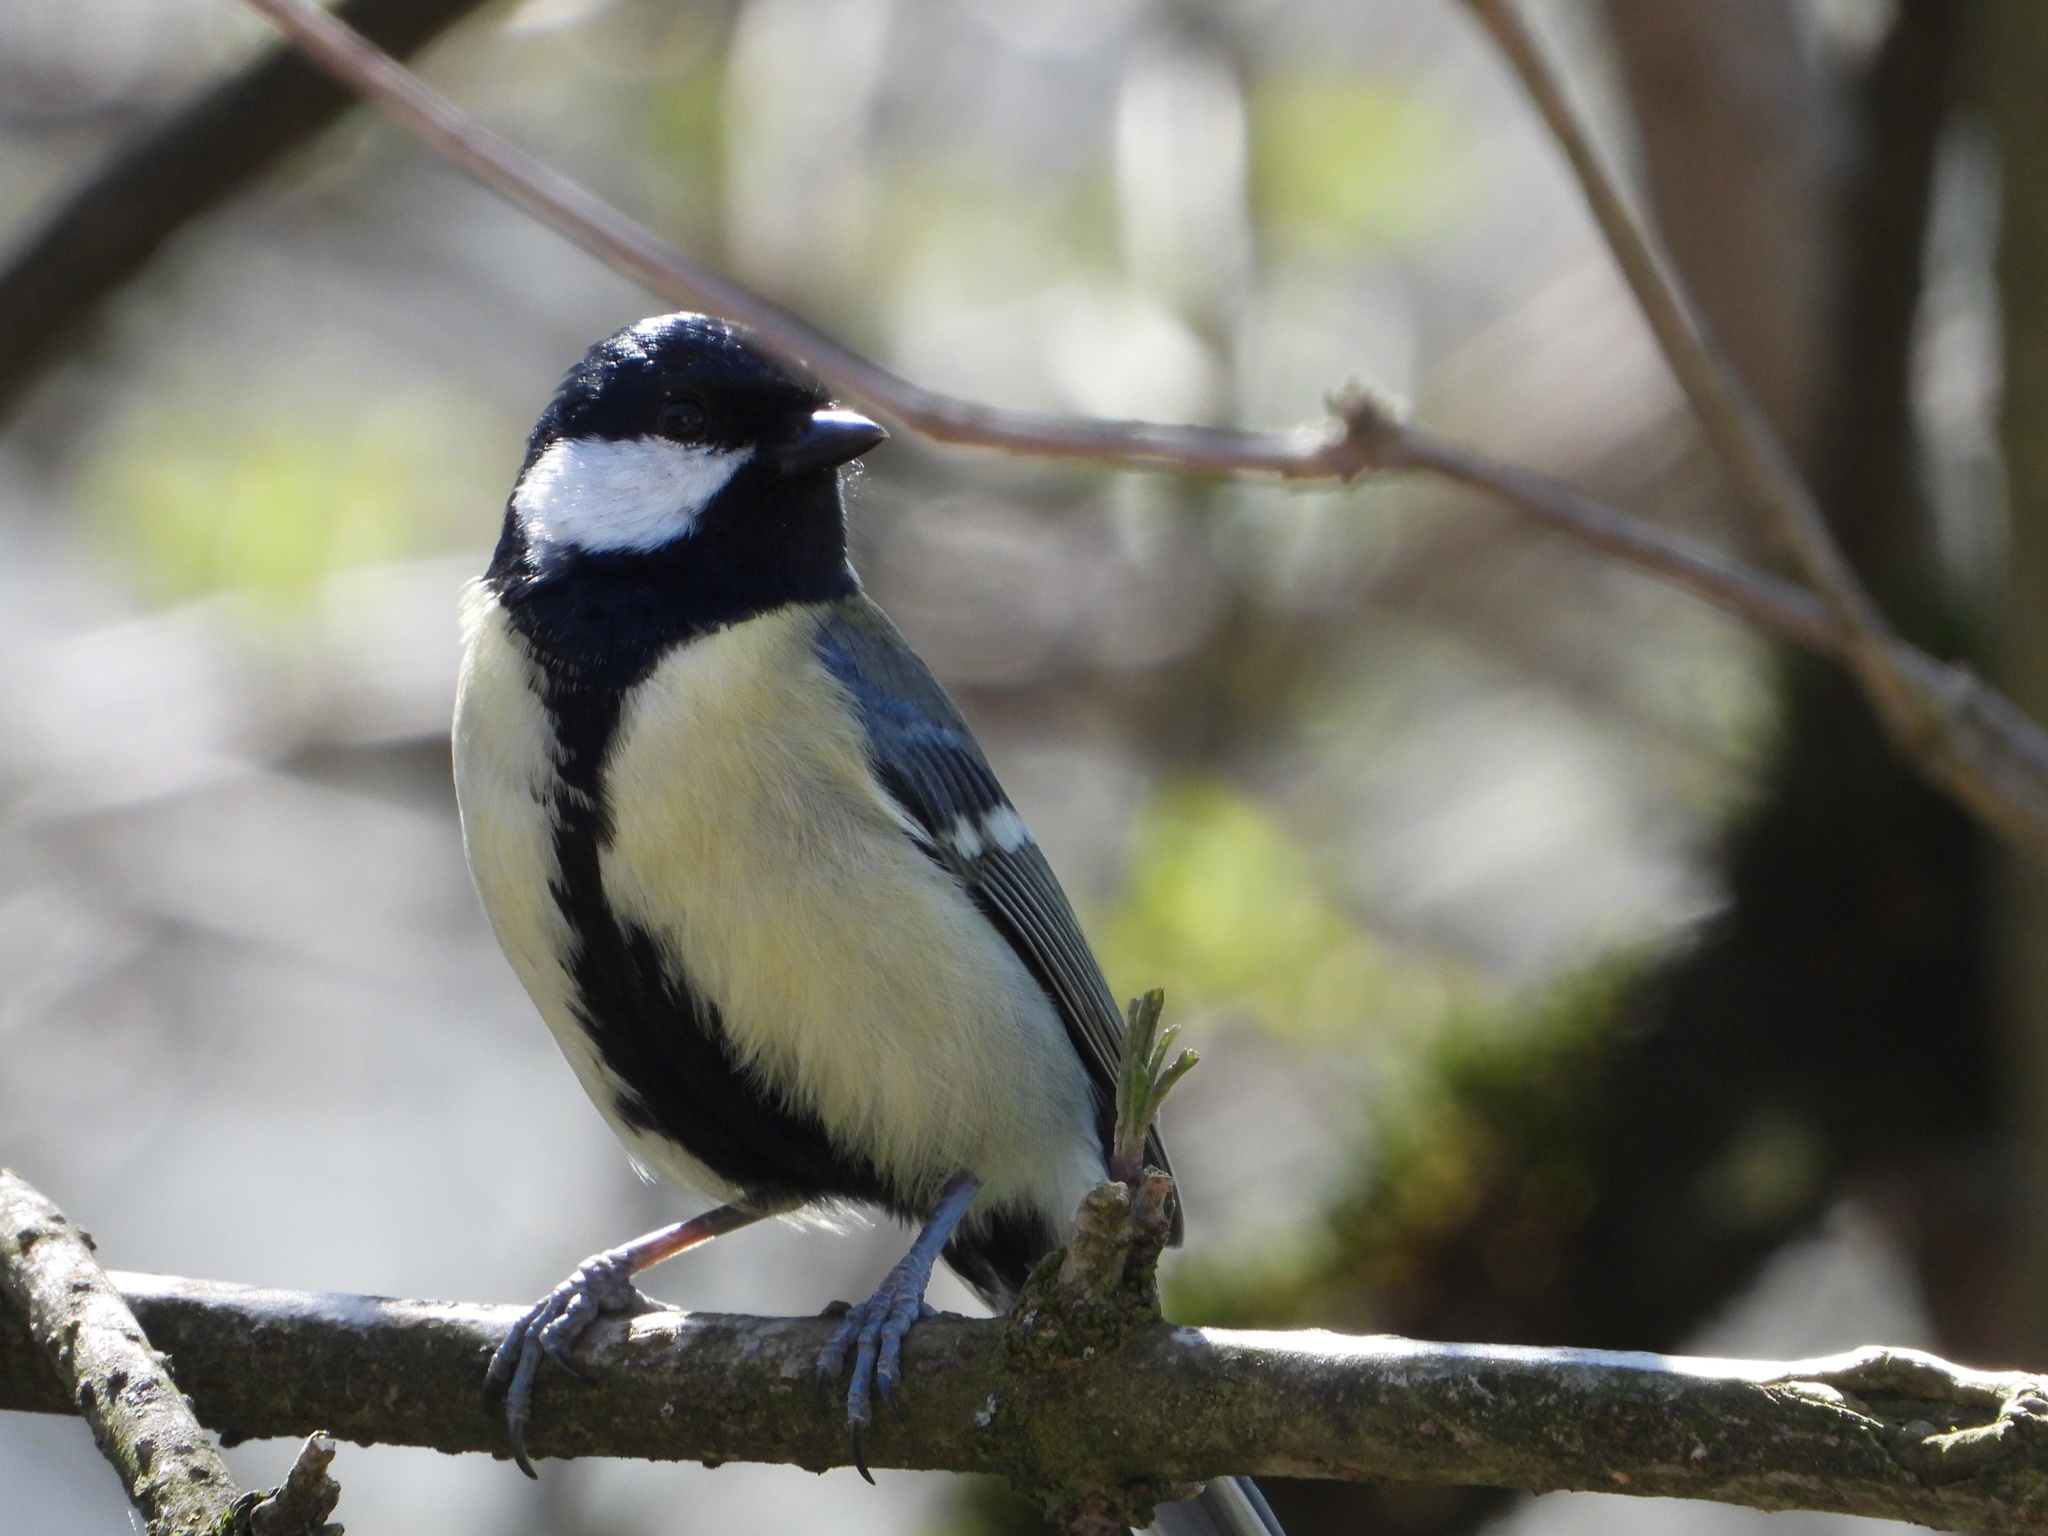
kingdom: Animalia
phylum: Chordata
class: Aves
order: Passeriformes
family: Paridae
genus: Parus
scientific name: Parus major
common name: Great tit
